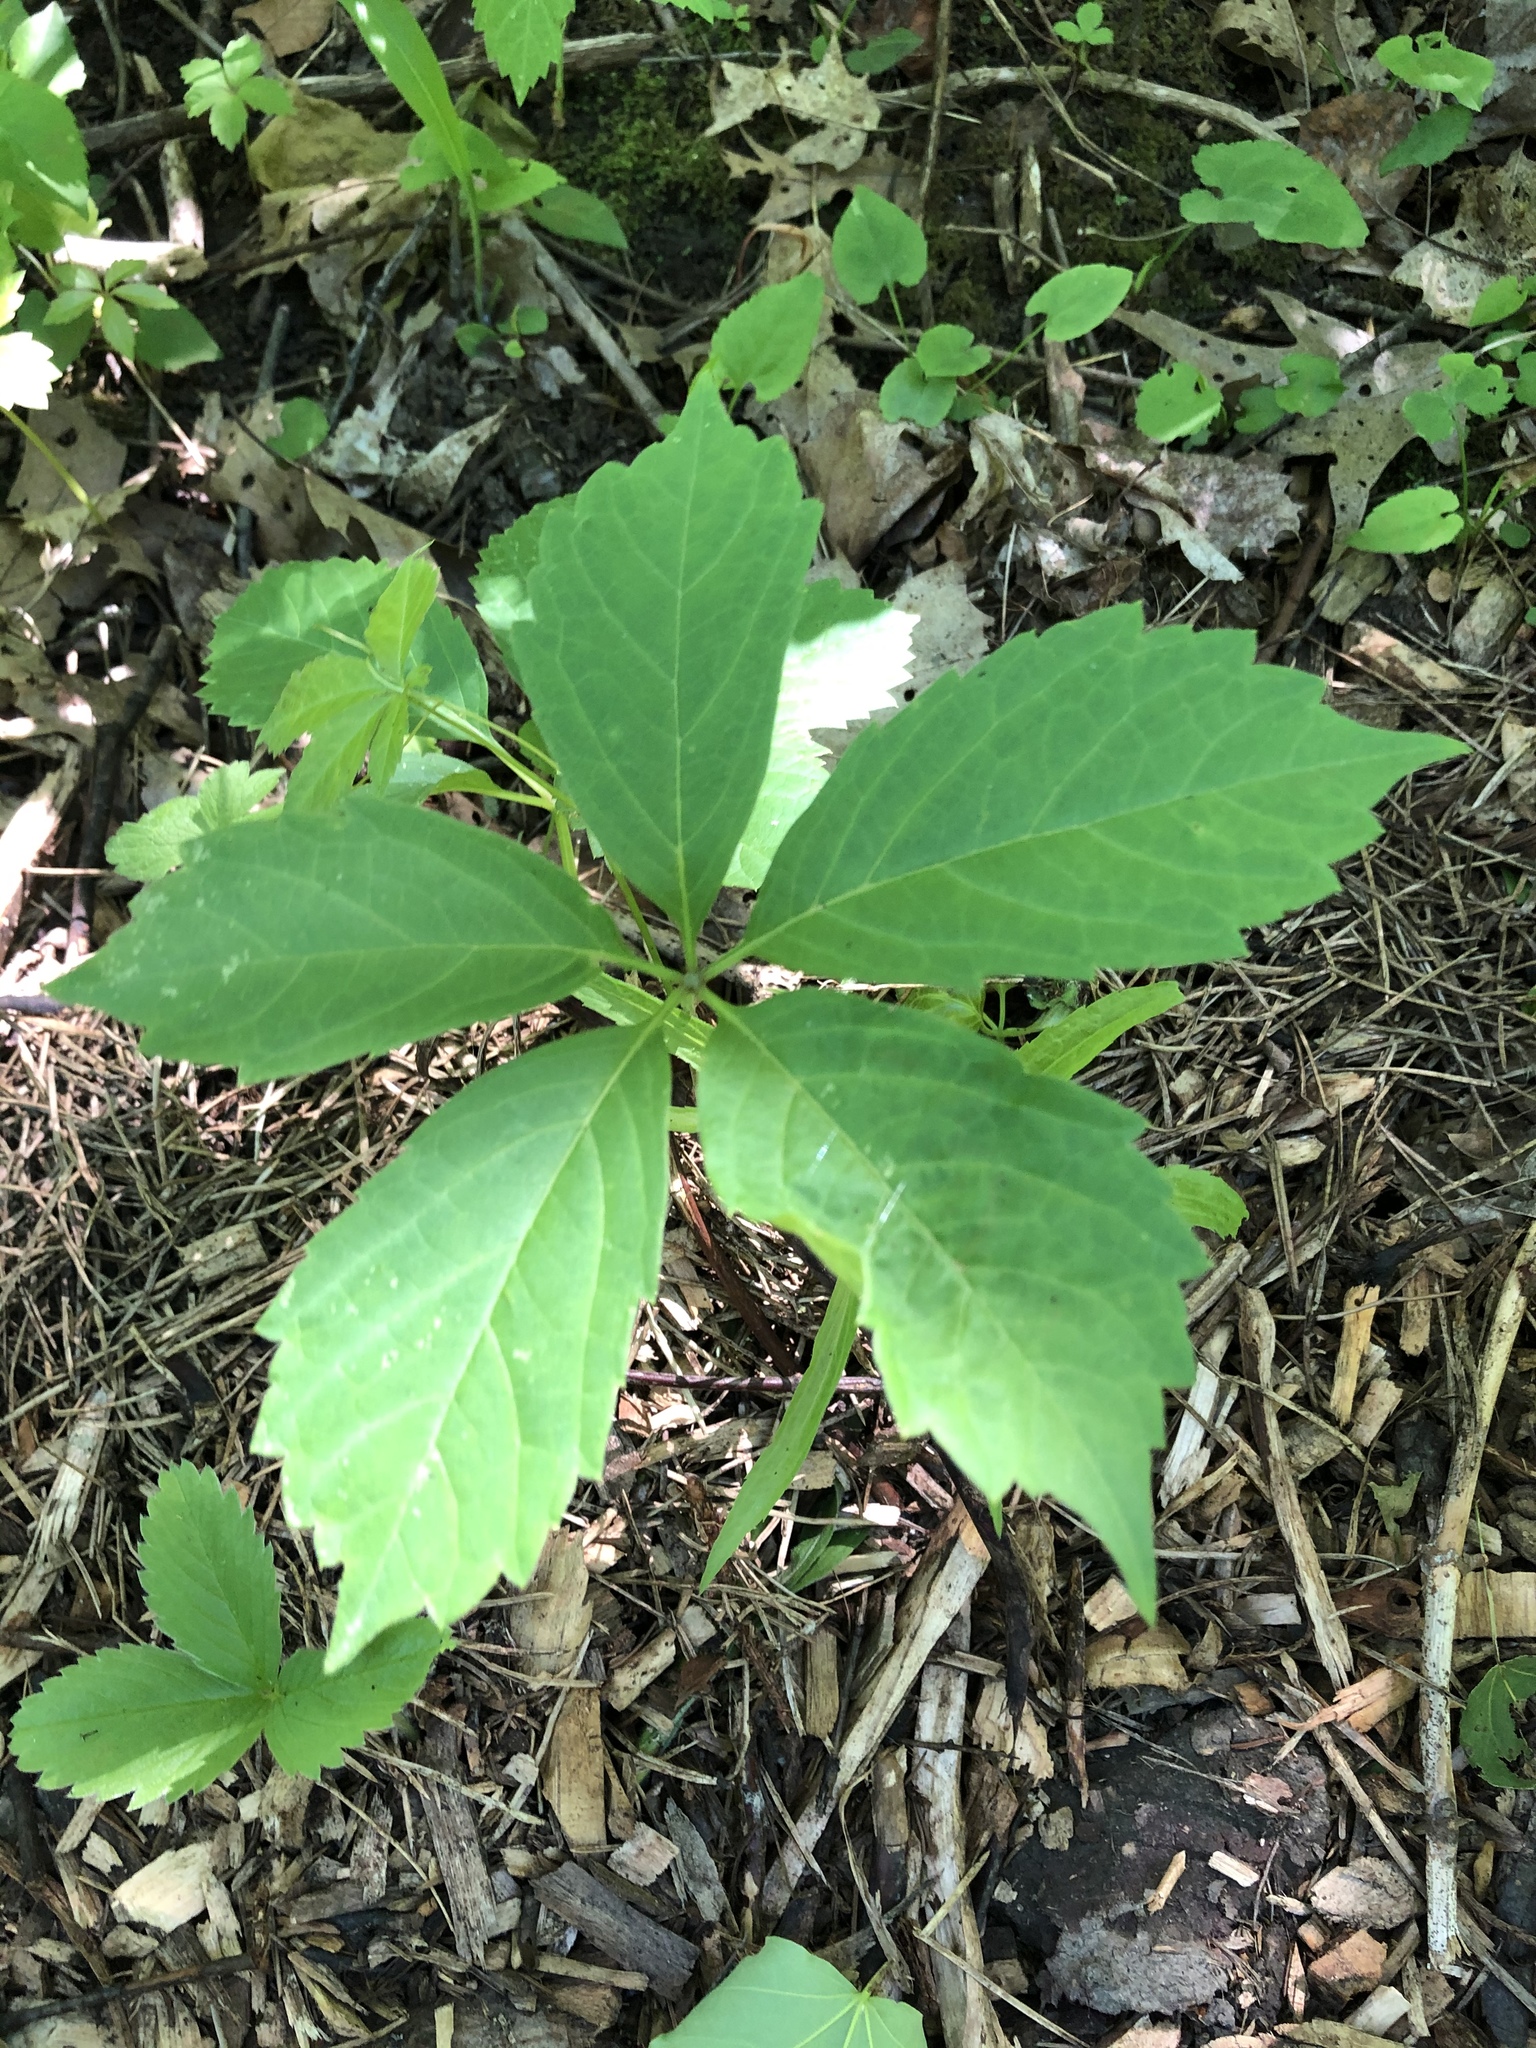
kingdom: Plantae
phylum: Tracheophyta
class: Magnoliopsida
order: Vitales
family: Vitaceae
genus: Parthenocissus
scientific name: Parthenocissus quinquefolia
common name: Virginia-creeper
